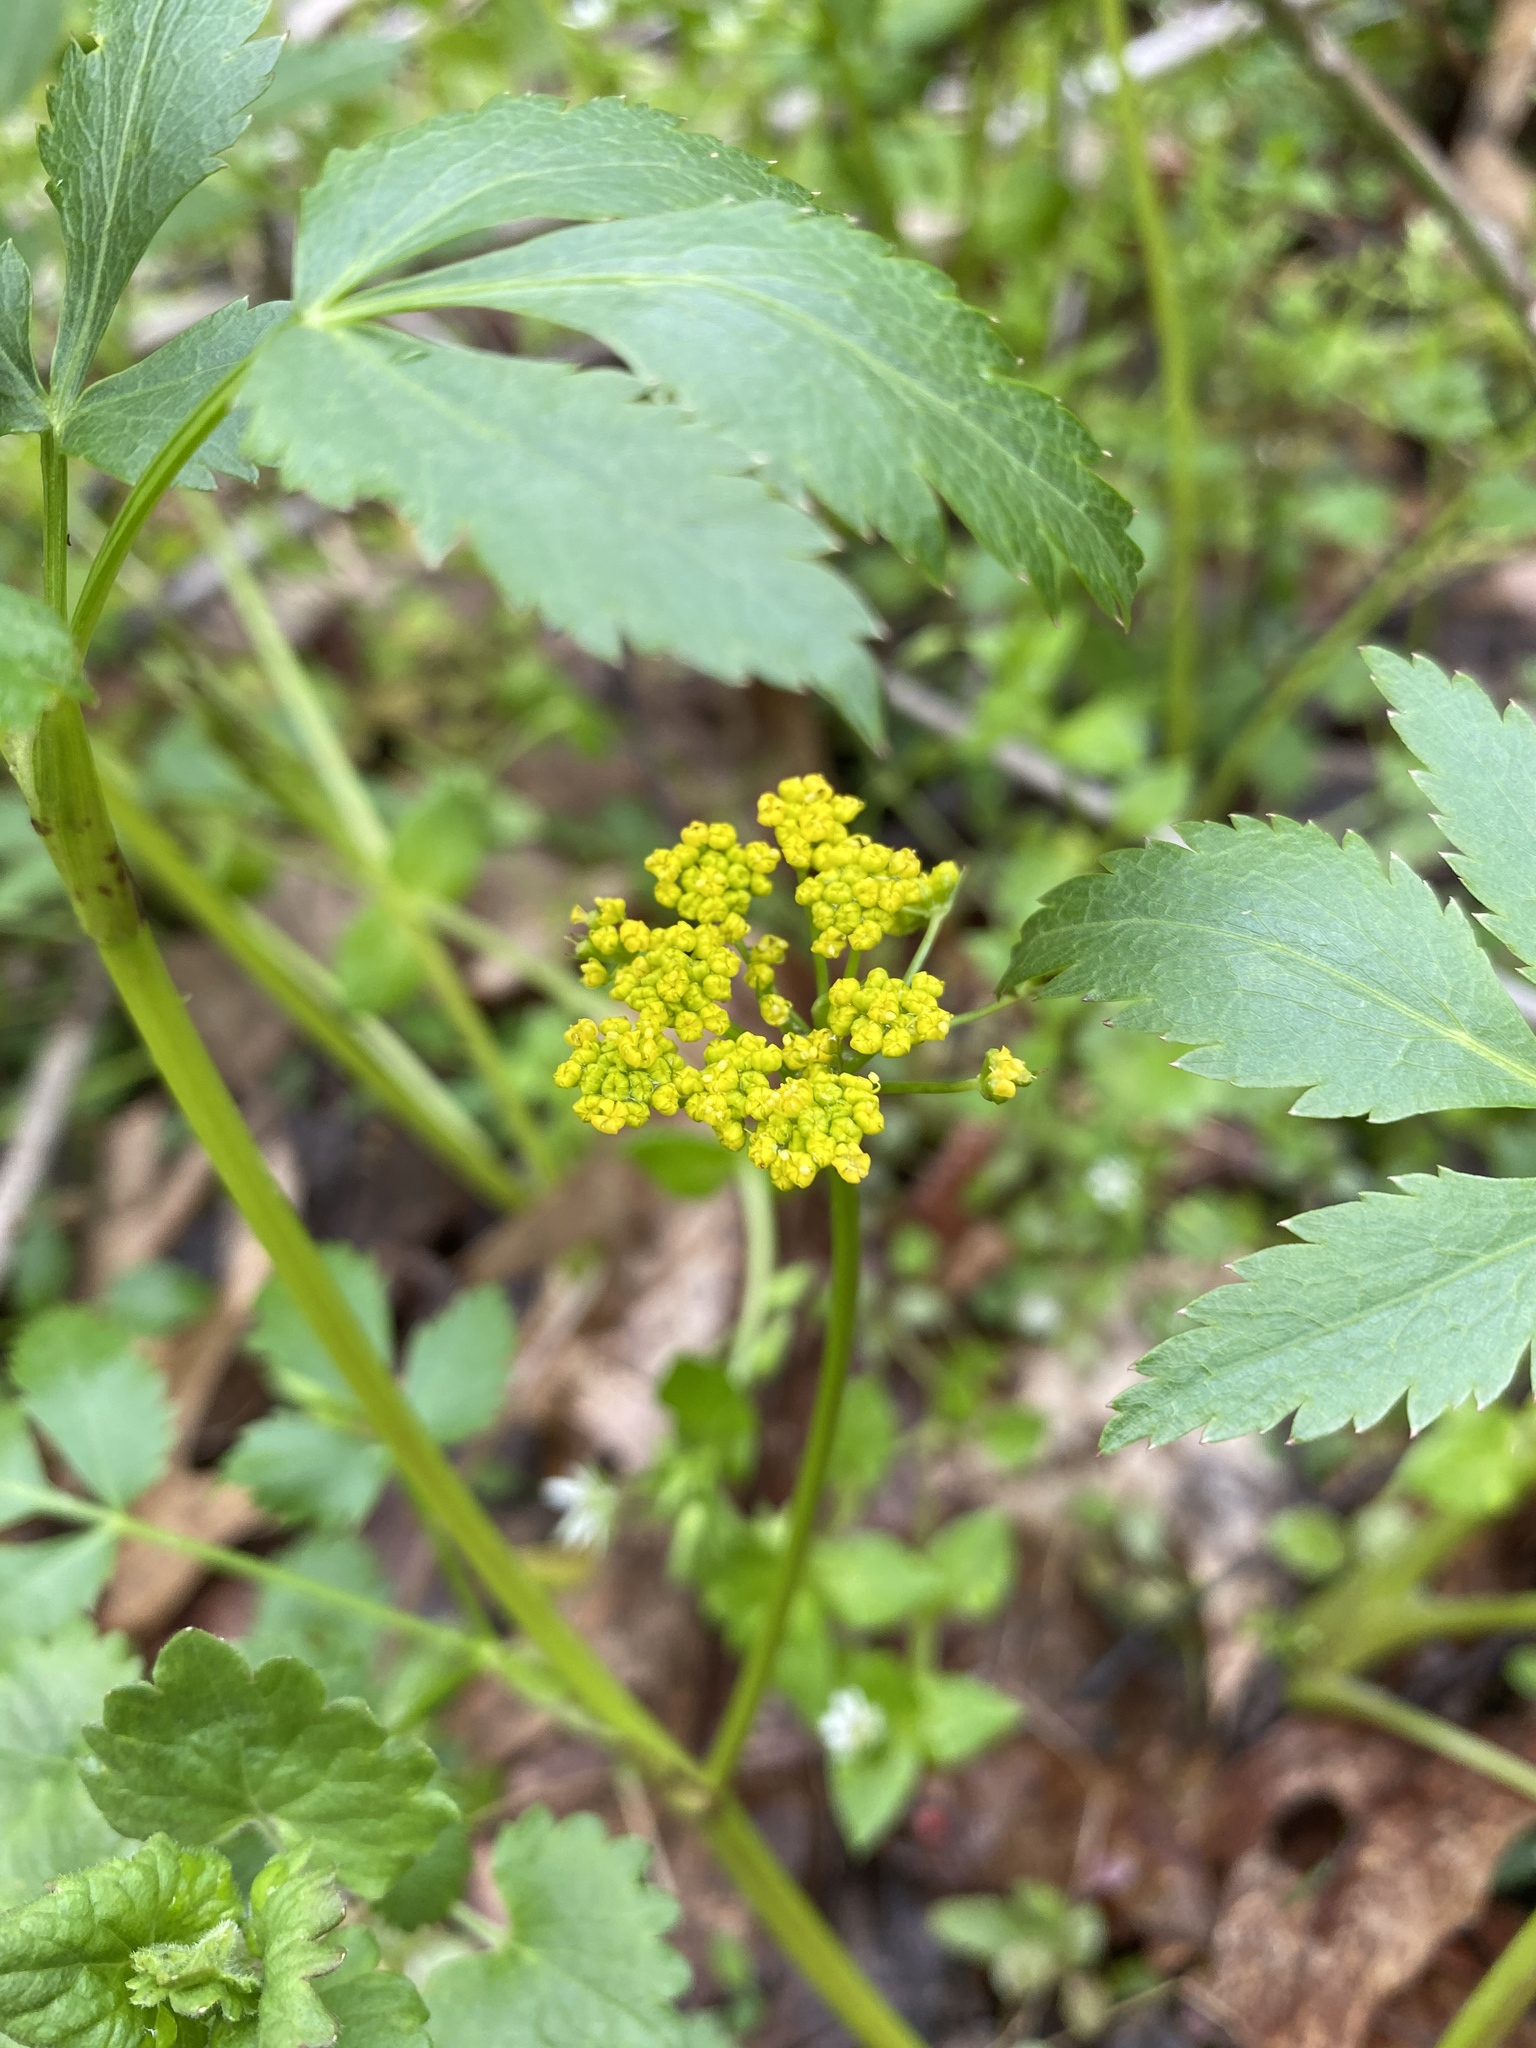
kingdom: Plantae
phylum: Tracheophyta
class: Magnoliopsida
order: Apiales
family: Apiaceae
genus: Zizia
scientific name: Zizia aurea
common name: Golden alexanders
